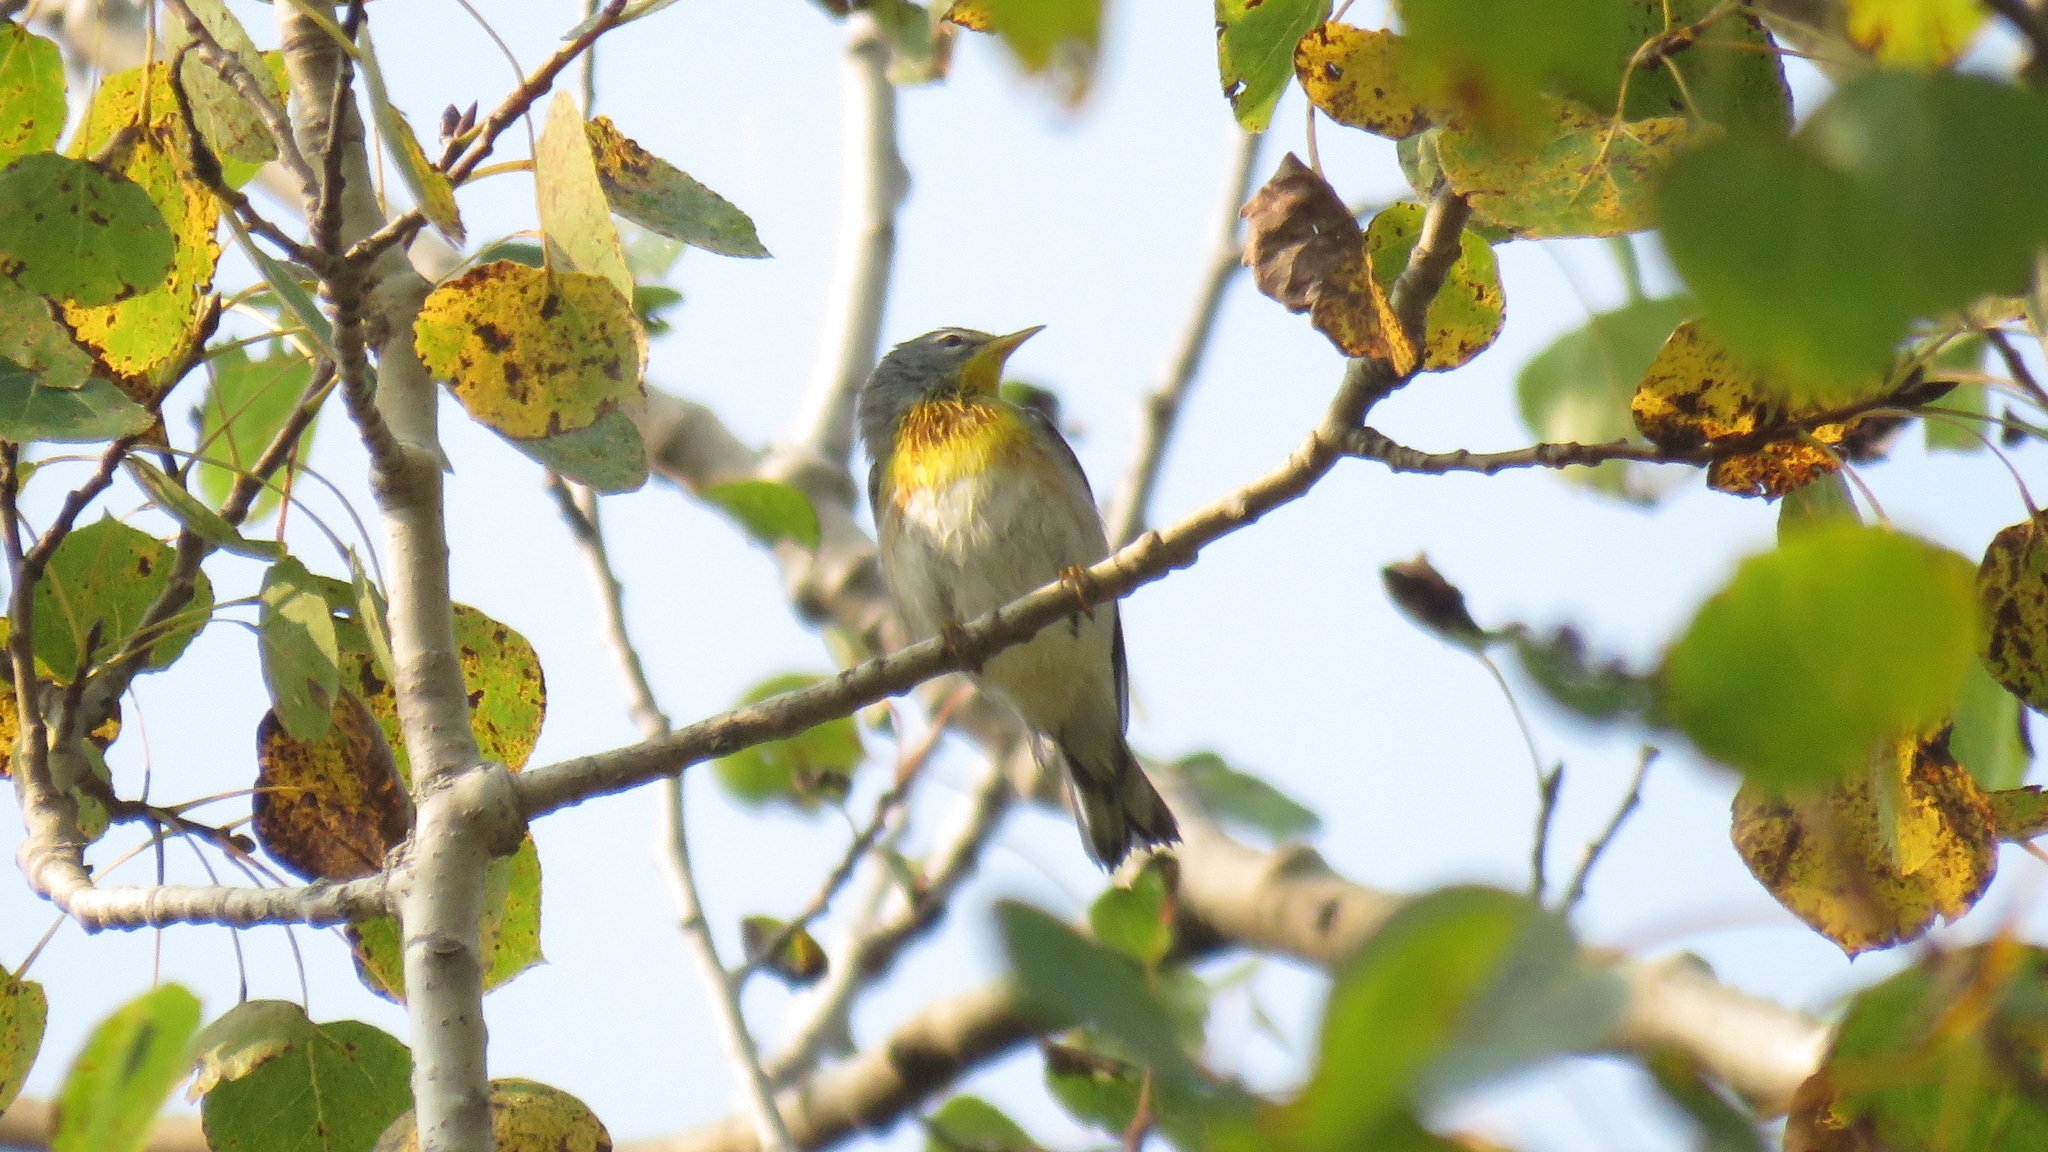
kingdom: Animalia
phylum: Chordata
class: Aves
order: Passeriformes
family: Parulidae
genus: Setophaga
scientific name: Setophaga americana
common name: Northern parula
